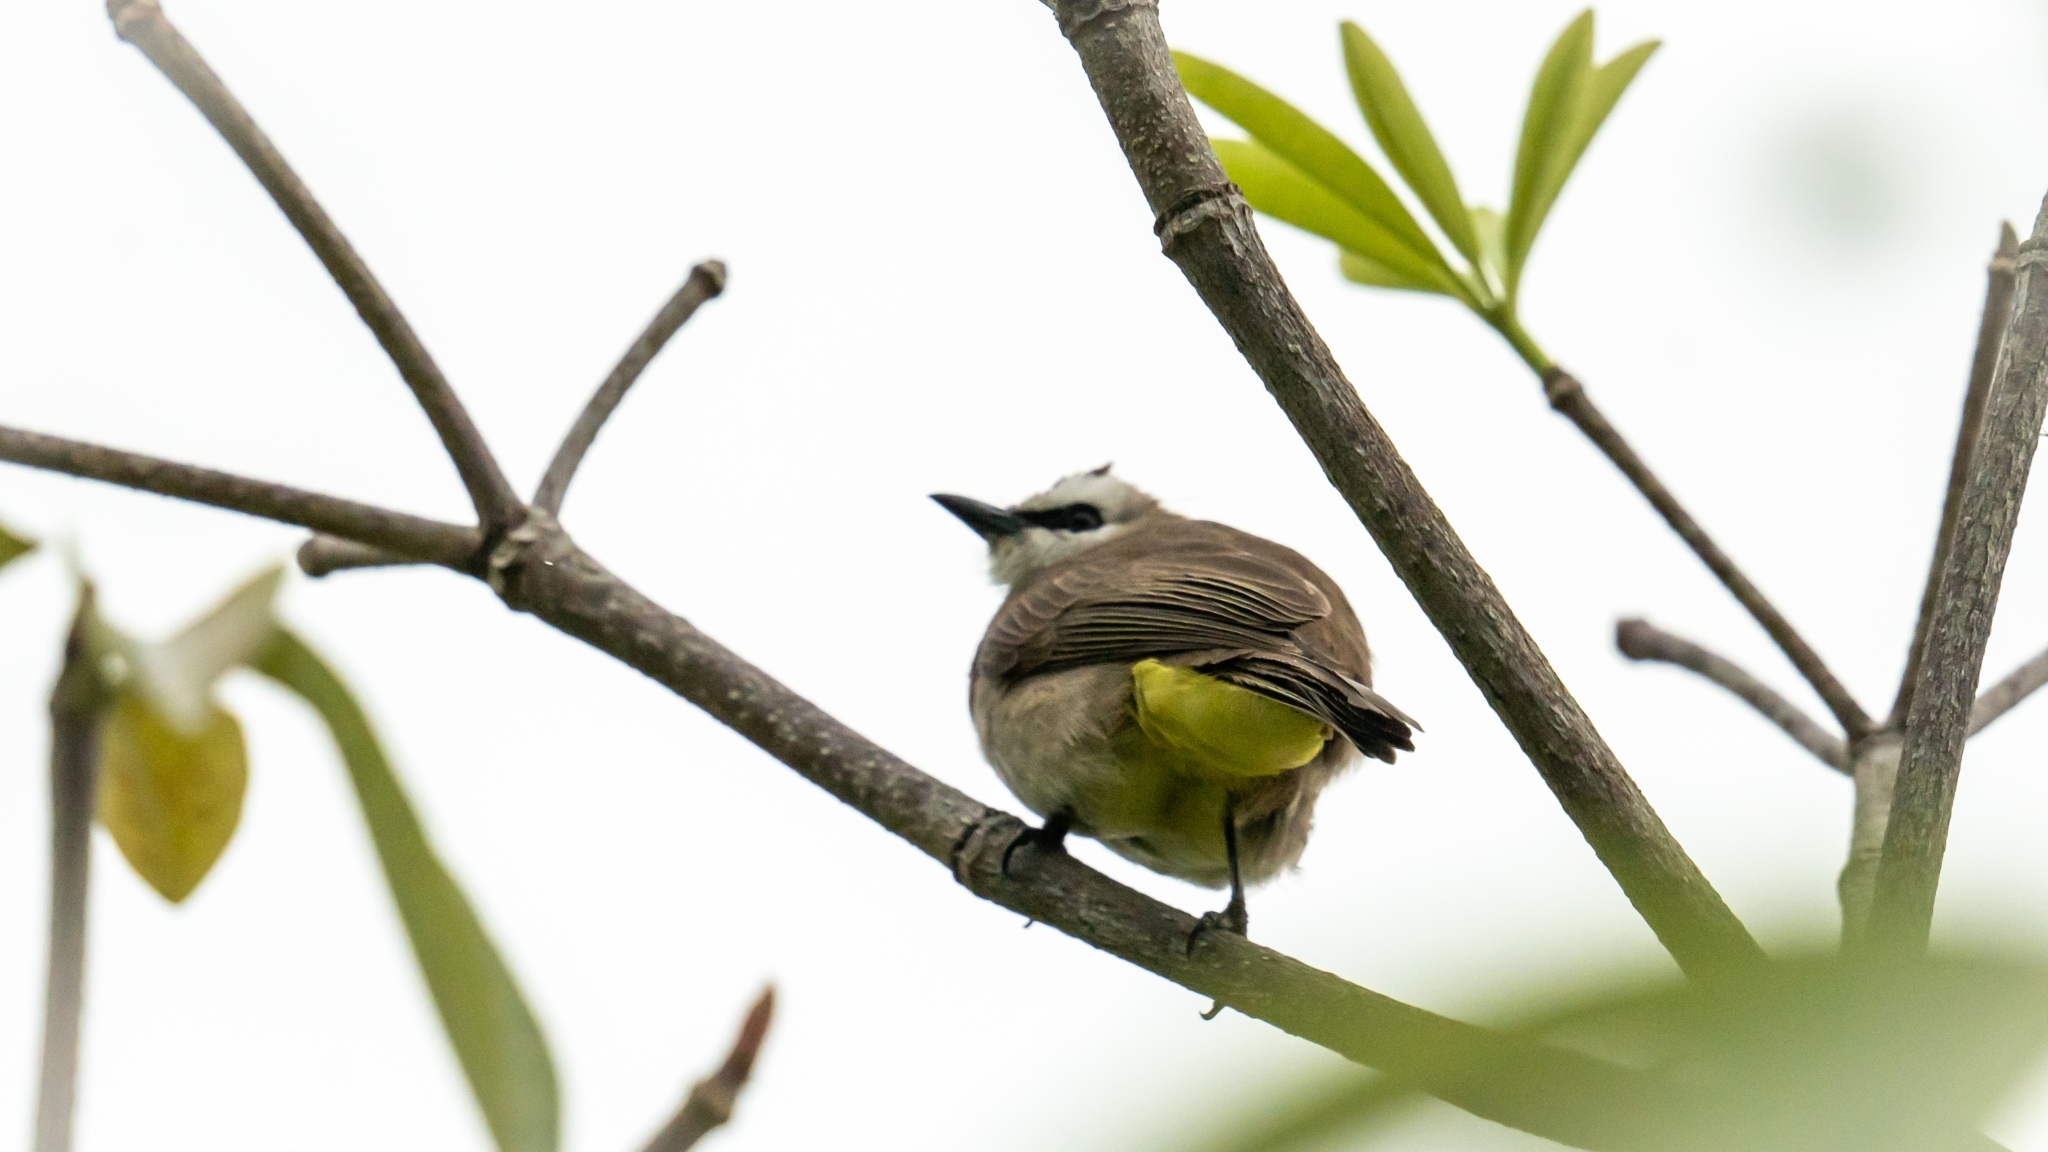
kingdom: Animalia
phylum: Chordata
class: Aves
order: Passeriformes
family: Pycnonotidae
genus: Pycnonotus
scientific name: Pycnonotus goiavier
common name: Yellow-vented bulbul
